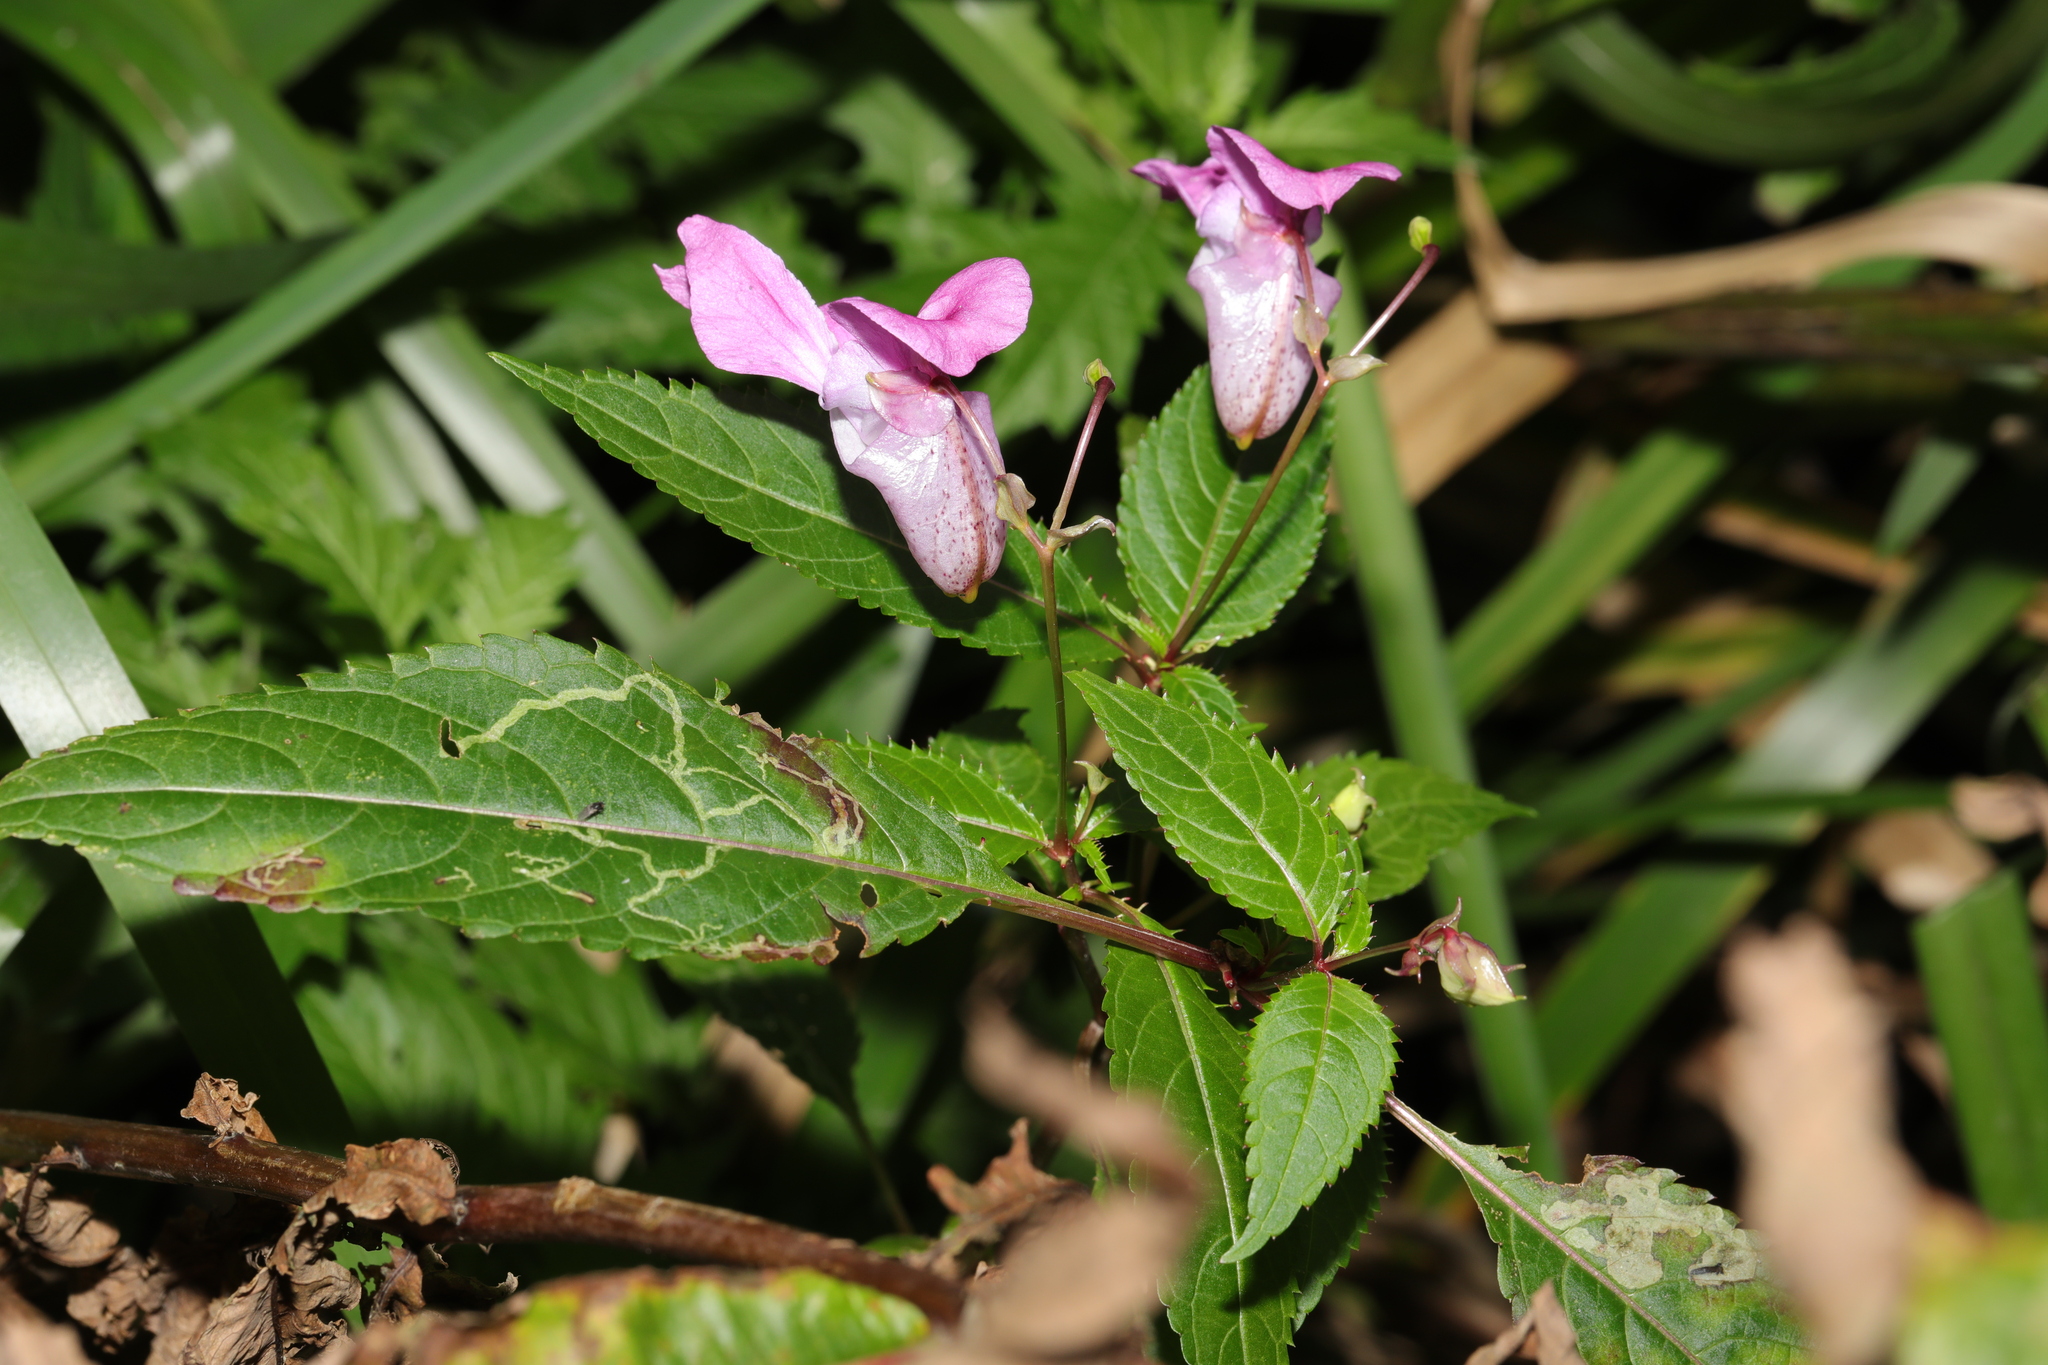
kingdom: Plantae
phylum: Tracheophyta
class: Magnoliopsida
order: Ericales
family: Balsaminaceae
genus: Impatiens
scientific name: Impatiens glandulifera
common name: Himalayan balsam
